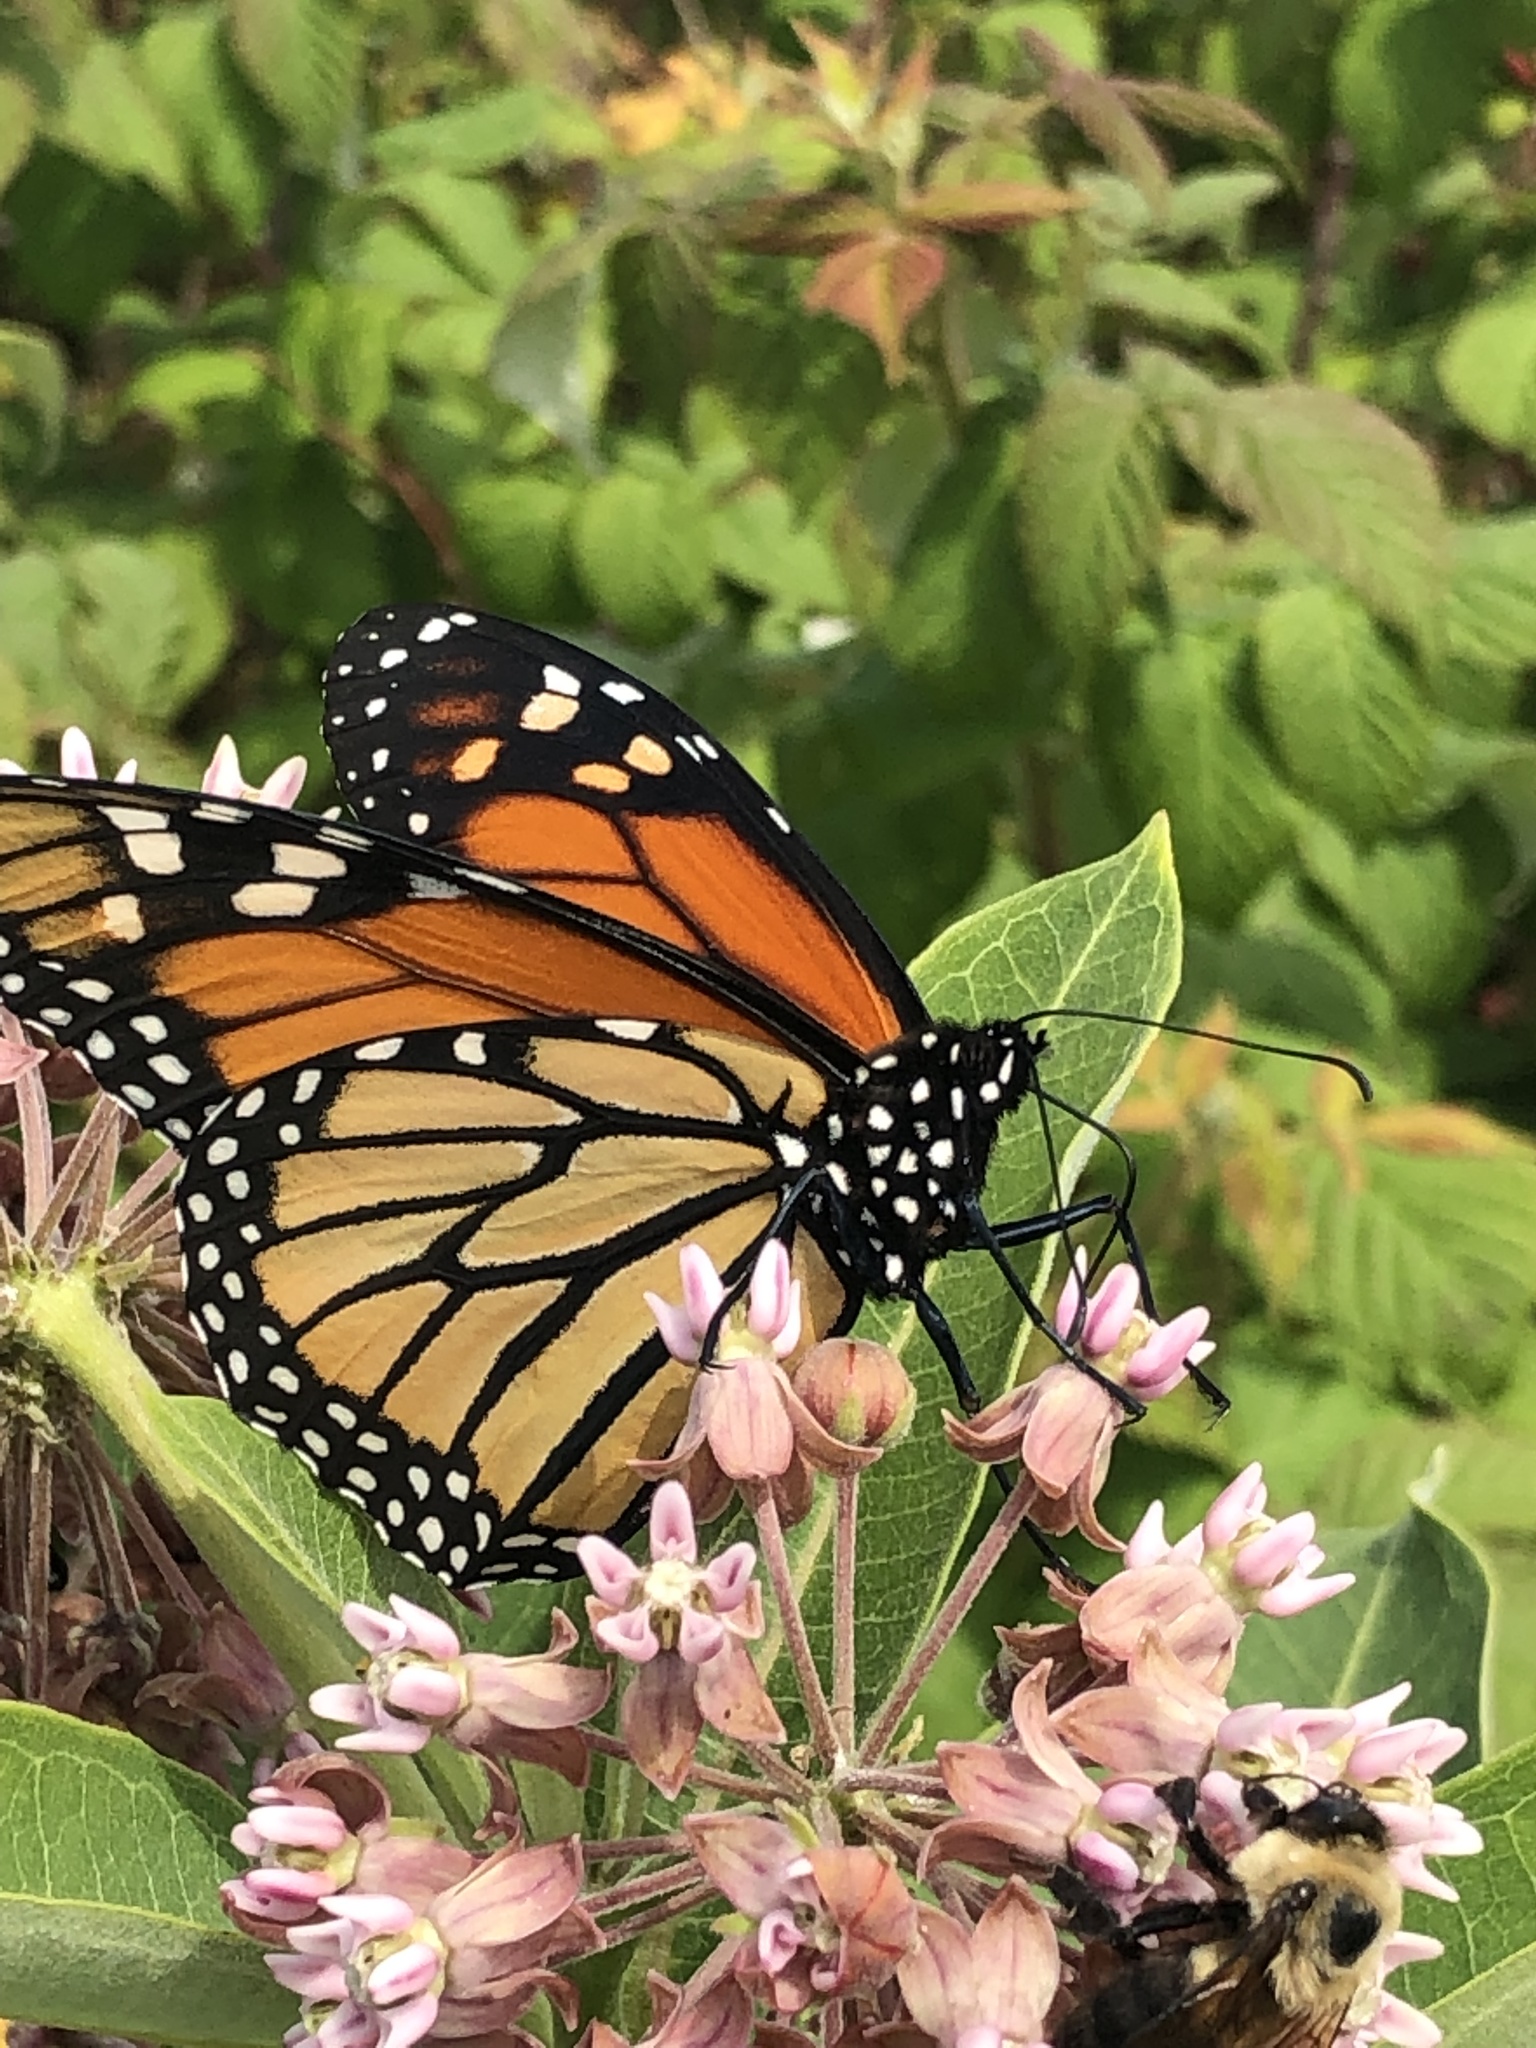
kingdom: Animalia
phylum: Arthropoda
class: Insecta
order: Lepidoptera
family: Nymphalidae
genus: Danaus
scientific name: Danaus plexippus
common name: Monarch
